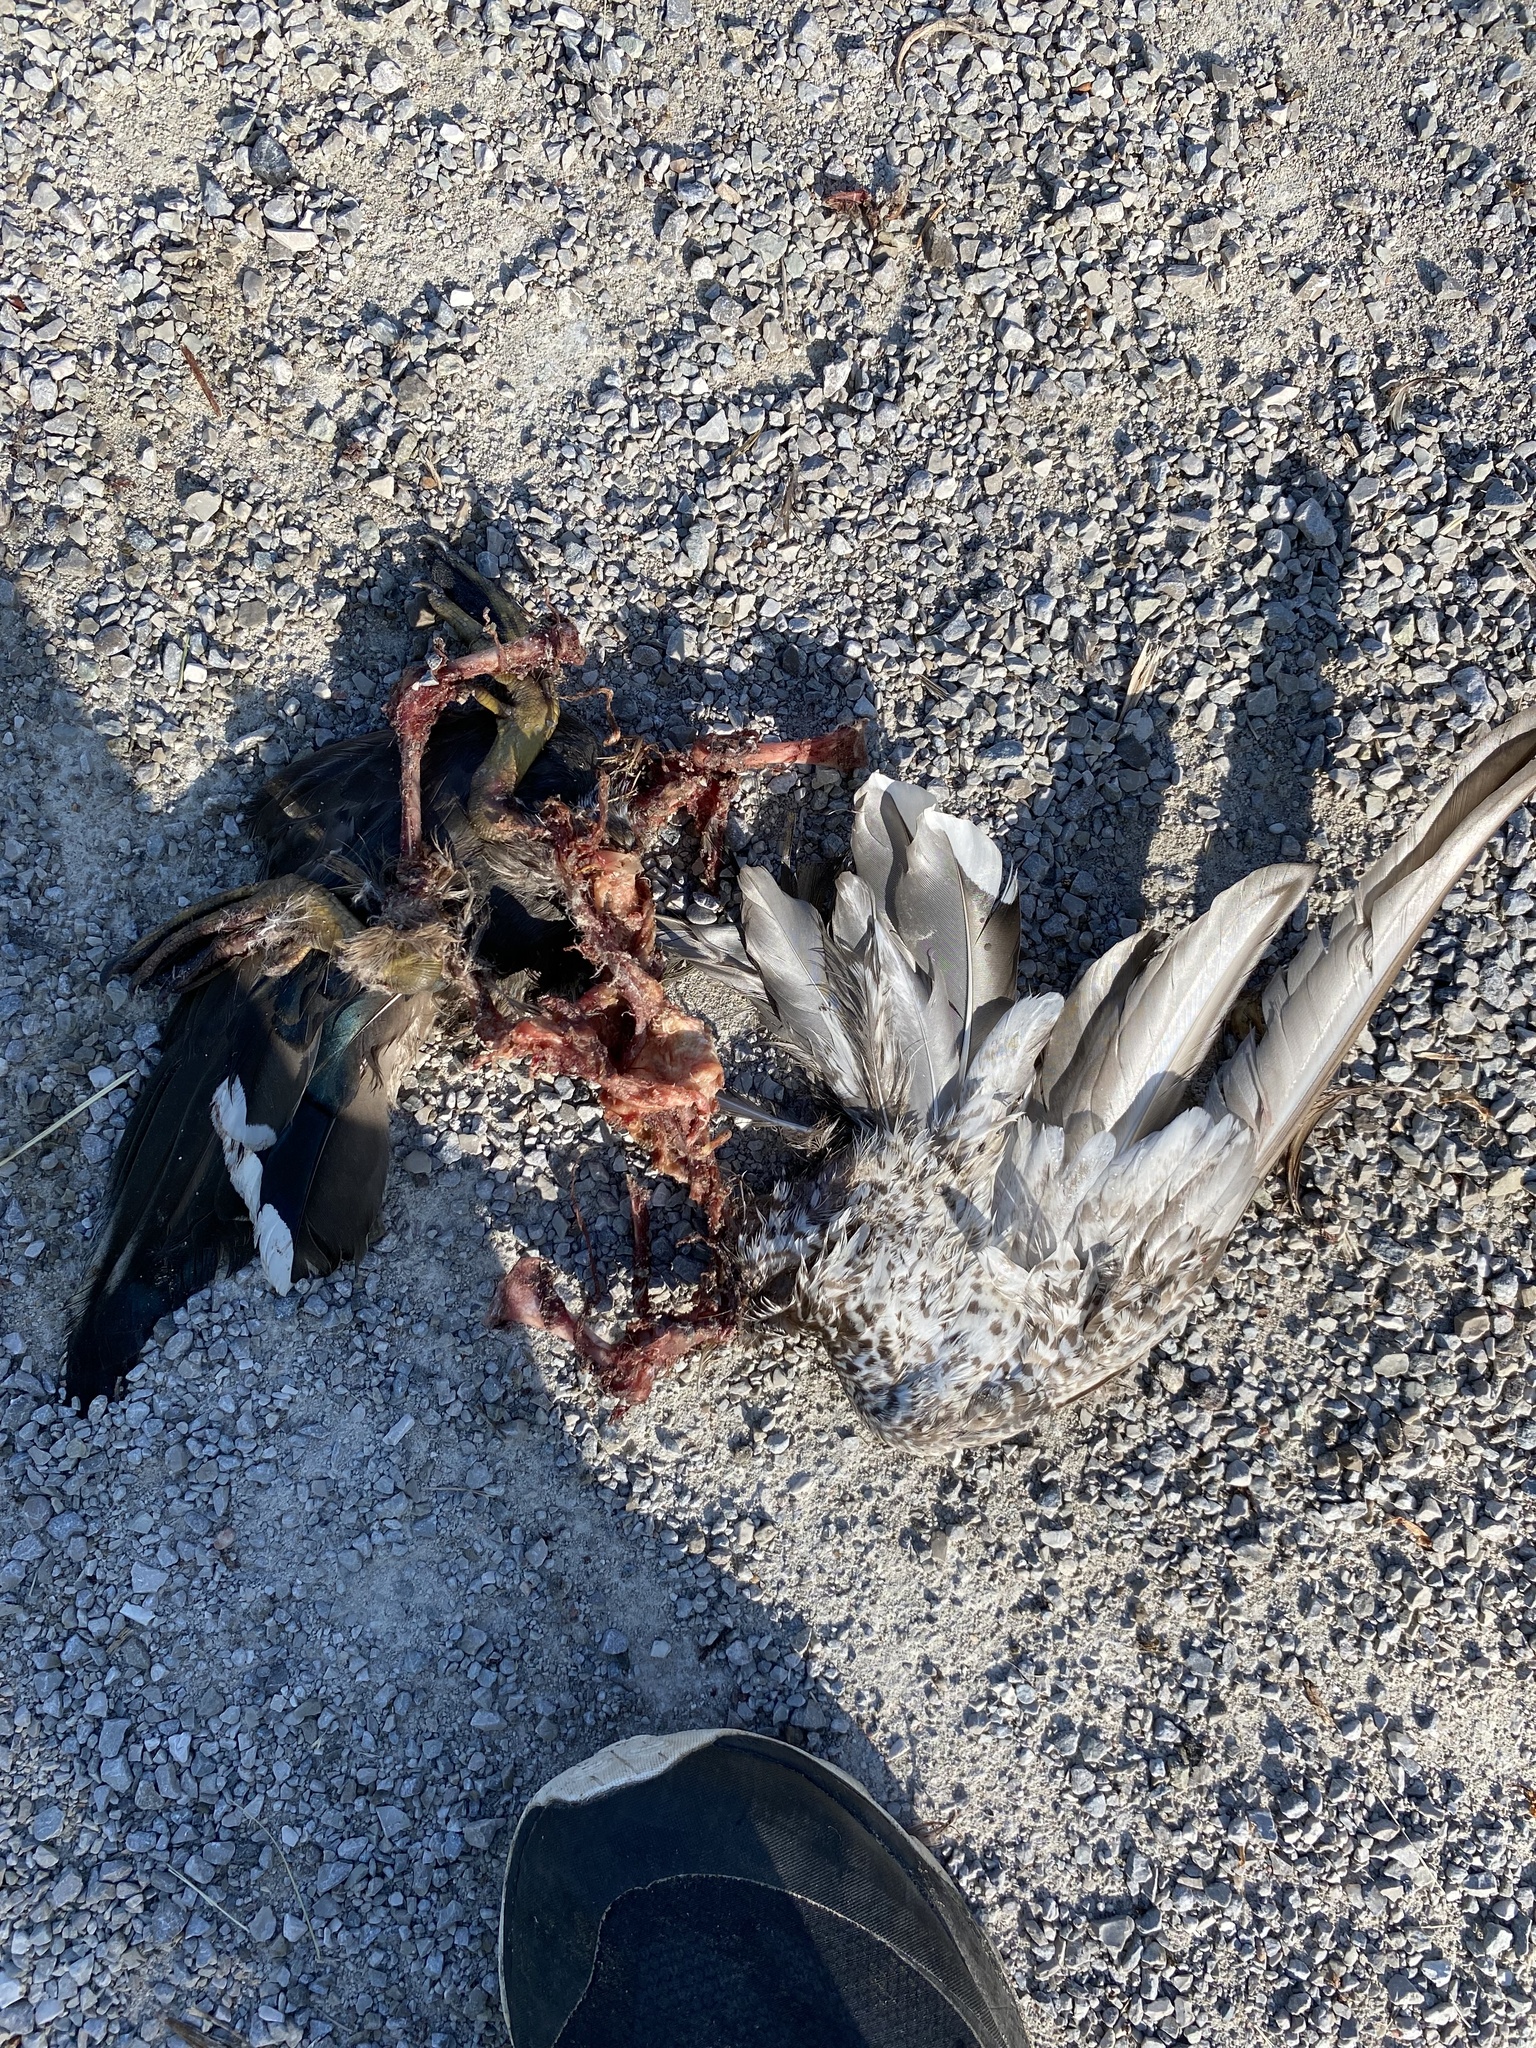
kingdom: Animalia
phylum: Chordata
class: Aves
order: Anseriformes
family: Anatidae
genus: Anas
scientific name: Anas platyrhynchos
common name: Mallard
